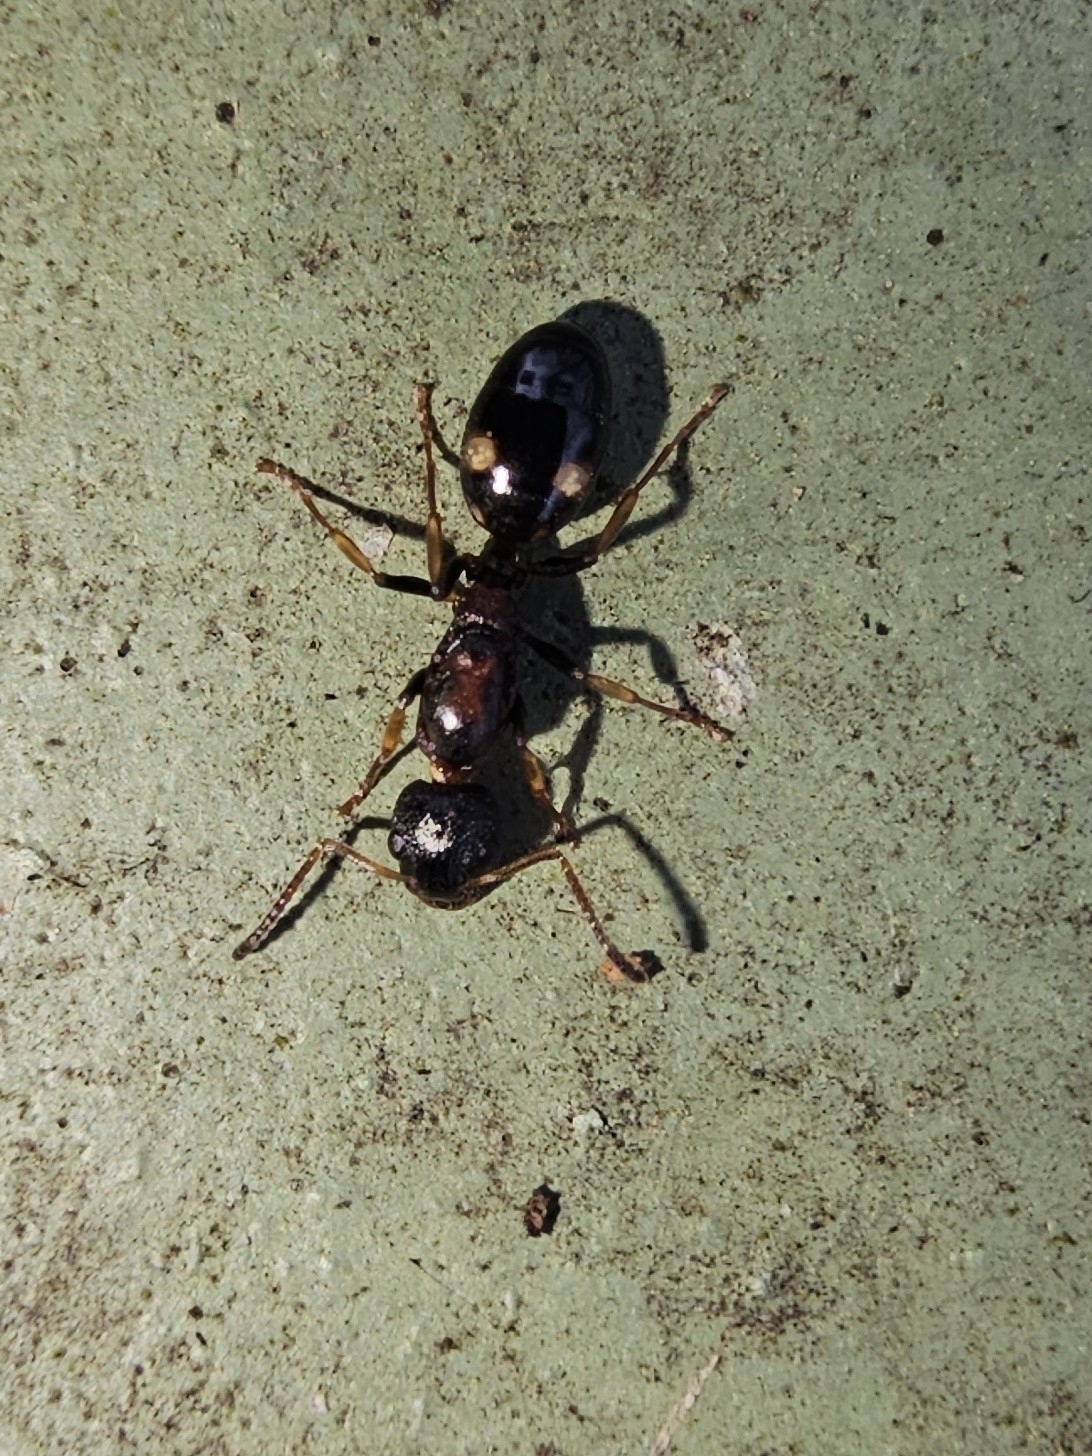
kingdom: Animalia
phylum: Arthropoda
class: Insecta
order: Hymenoptera
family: Formicidae
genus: Dolichoderus
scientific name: Dolichoderus quadripunctatus
